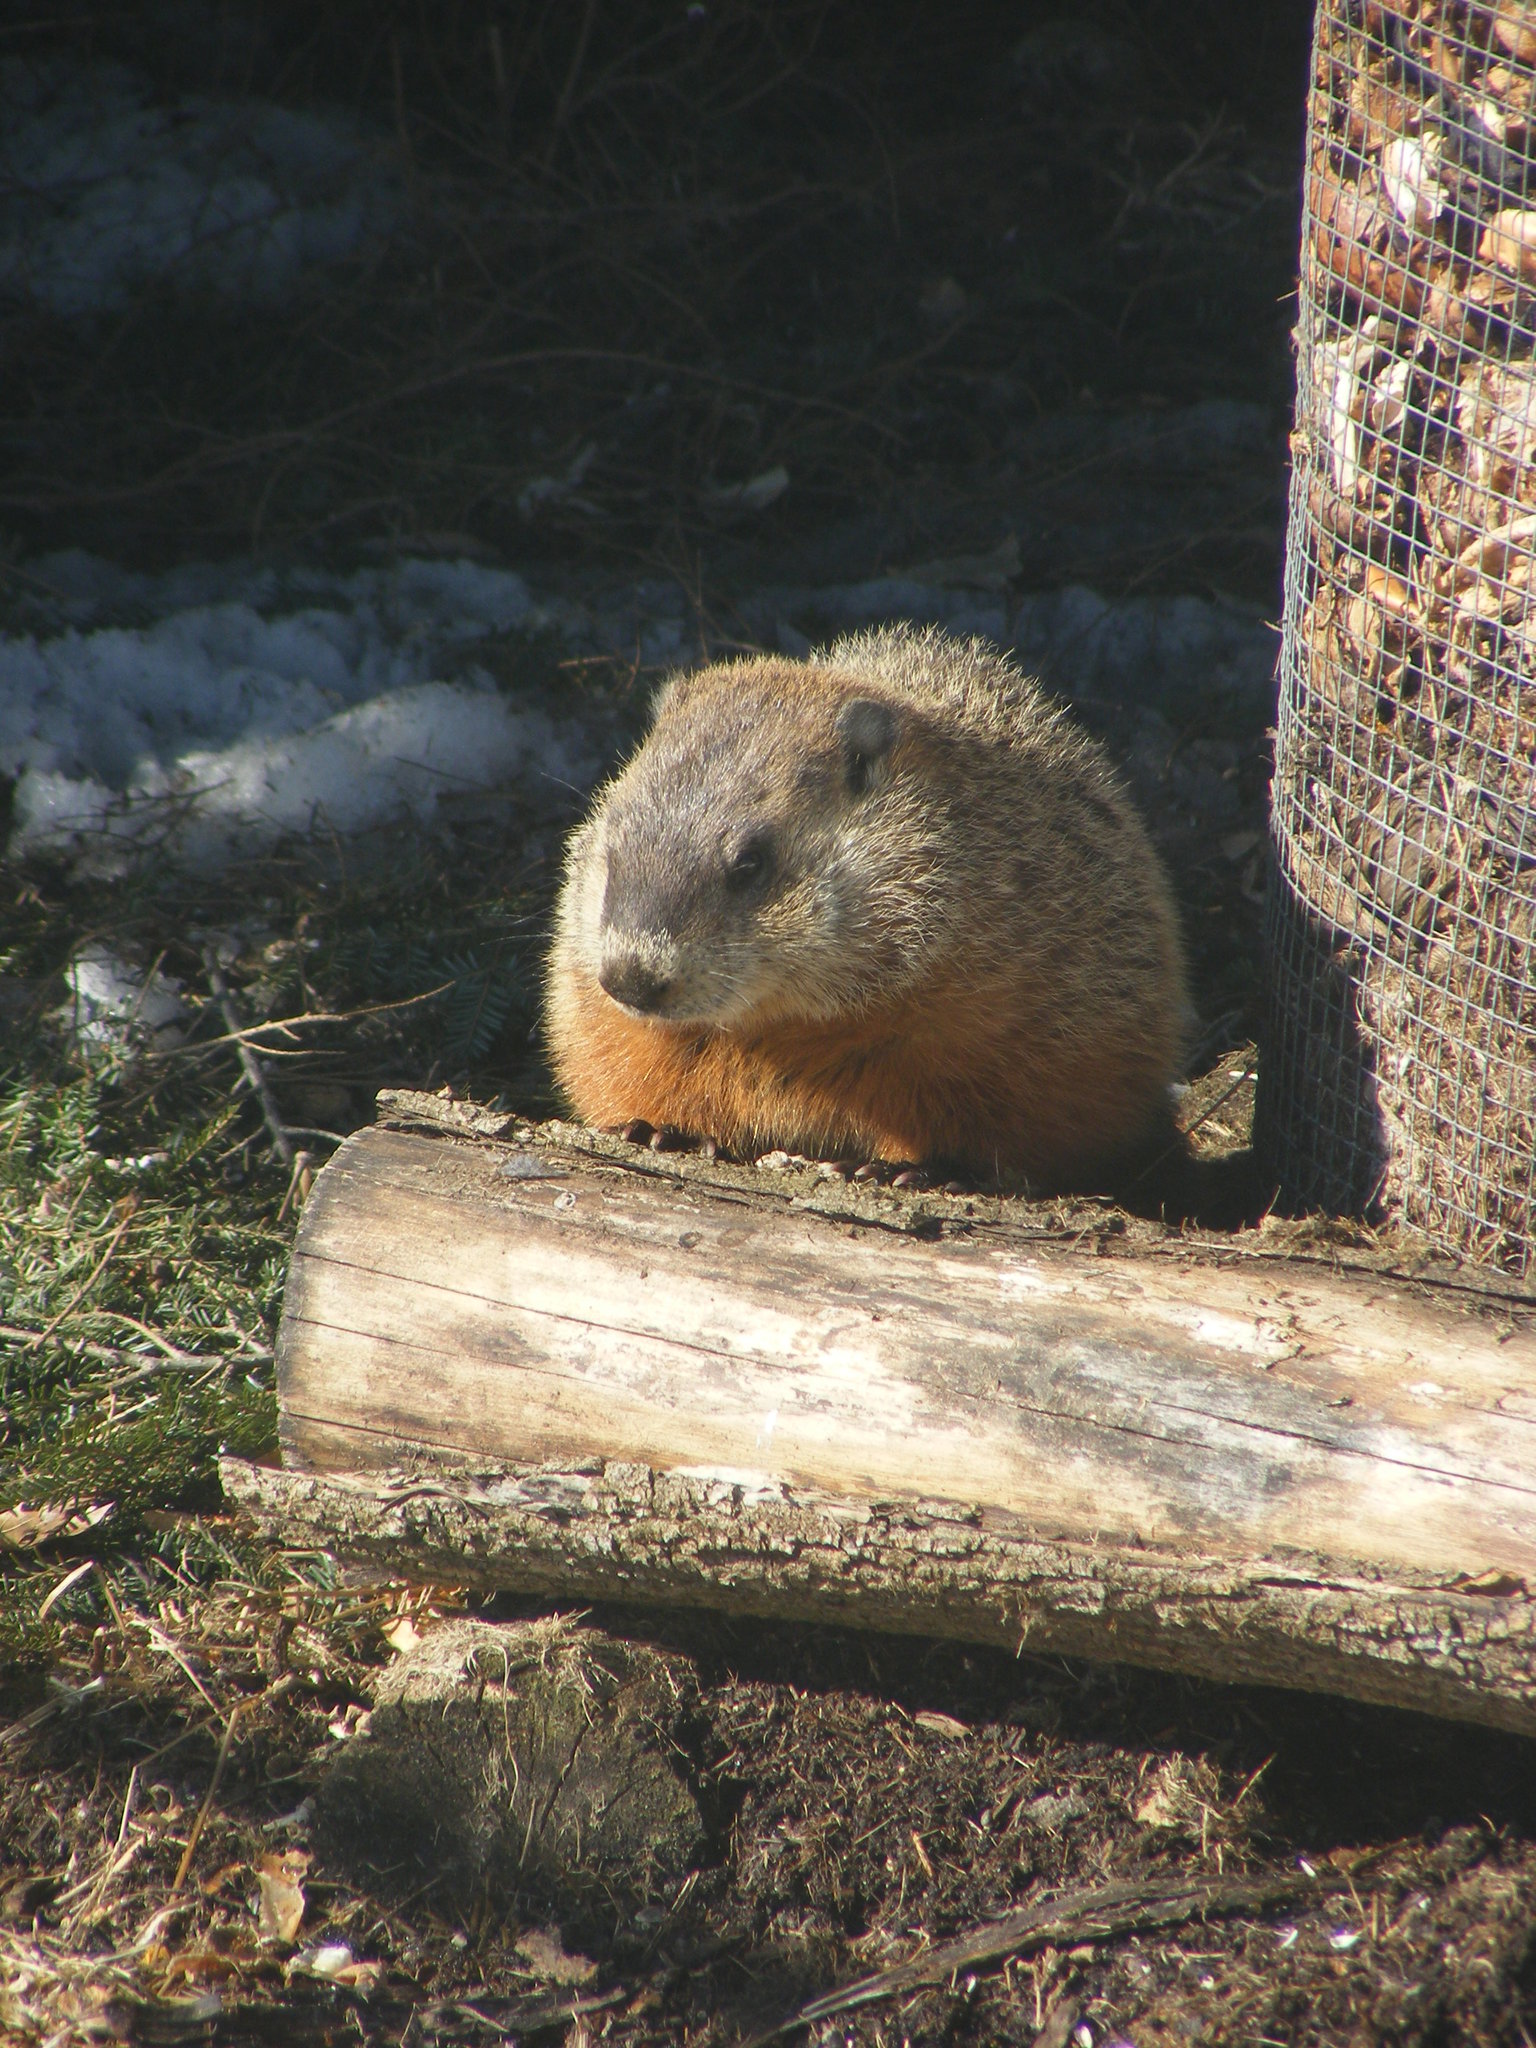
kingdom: Animalia
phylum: Chordata
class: Mammalia
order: Rodentia
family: Sciuridae
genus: Marmota
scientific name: Marmota monax
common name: Groundhog
